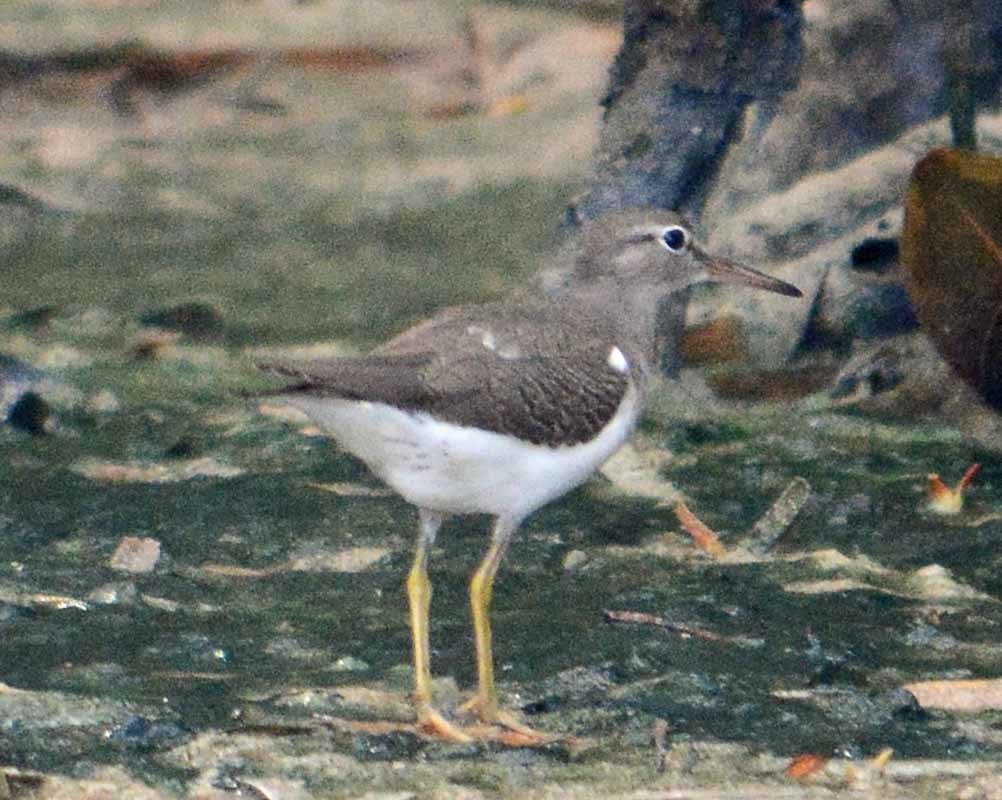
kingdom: Animalia
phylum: Chordata
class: Aves
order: Charadriiformes
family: Scolopacidae
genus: Actitis
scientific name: Actitis macularius
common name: Spotted sandpiper
